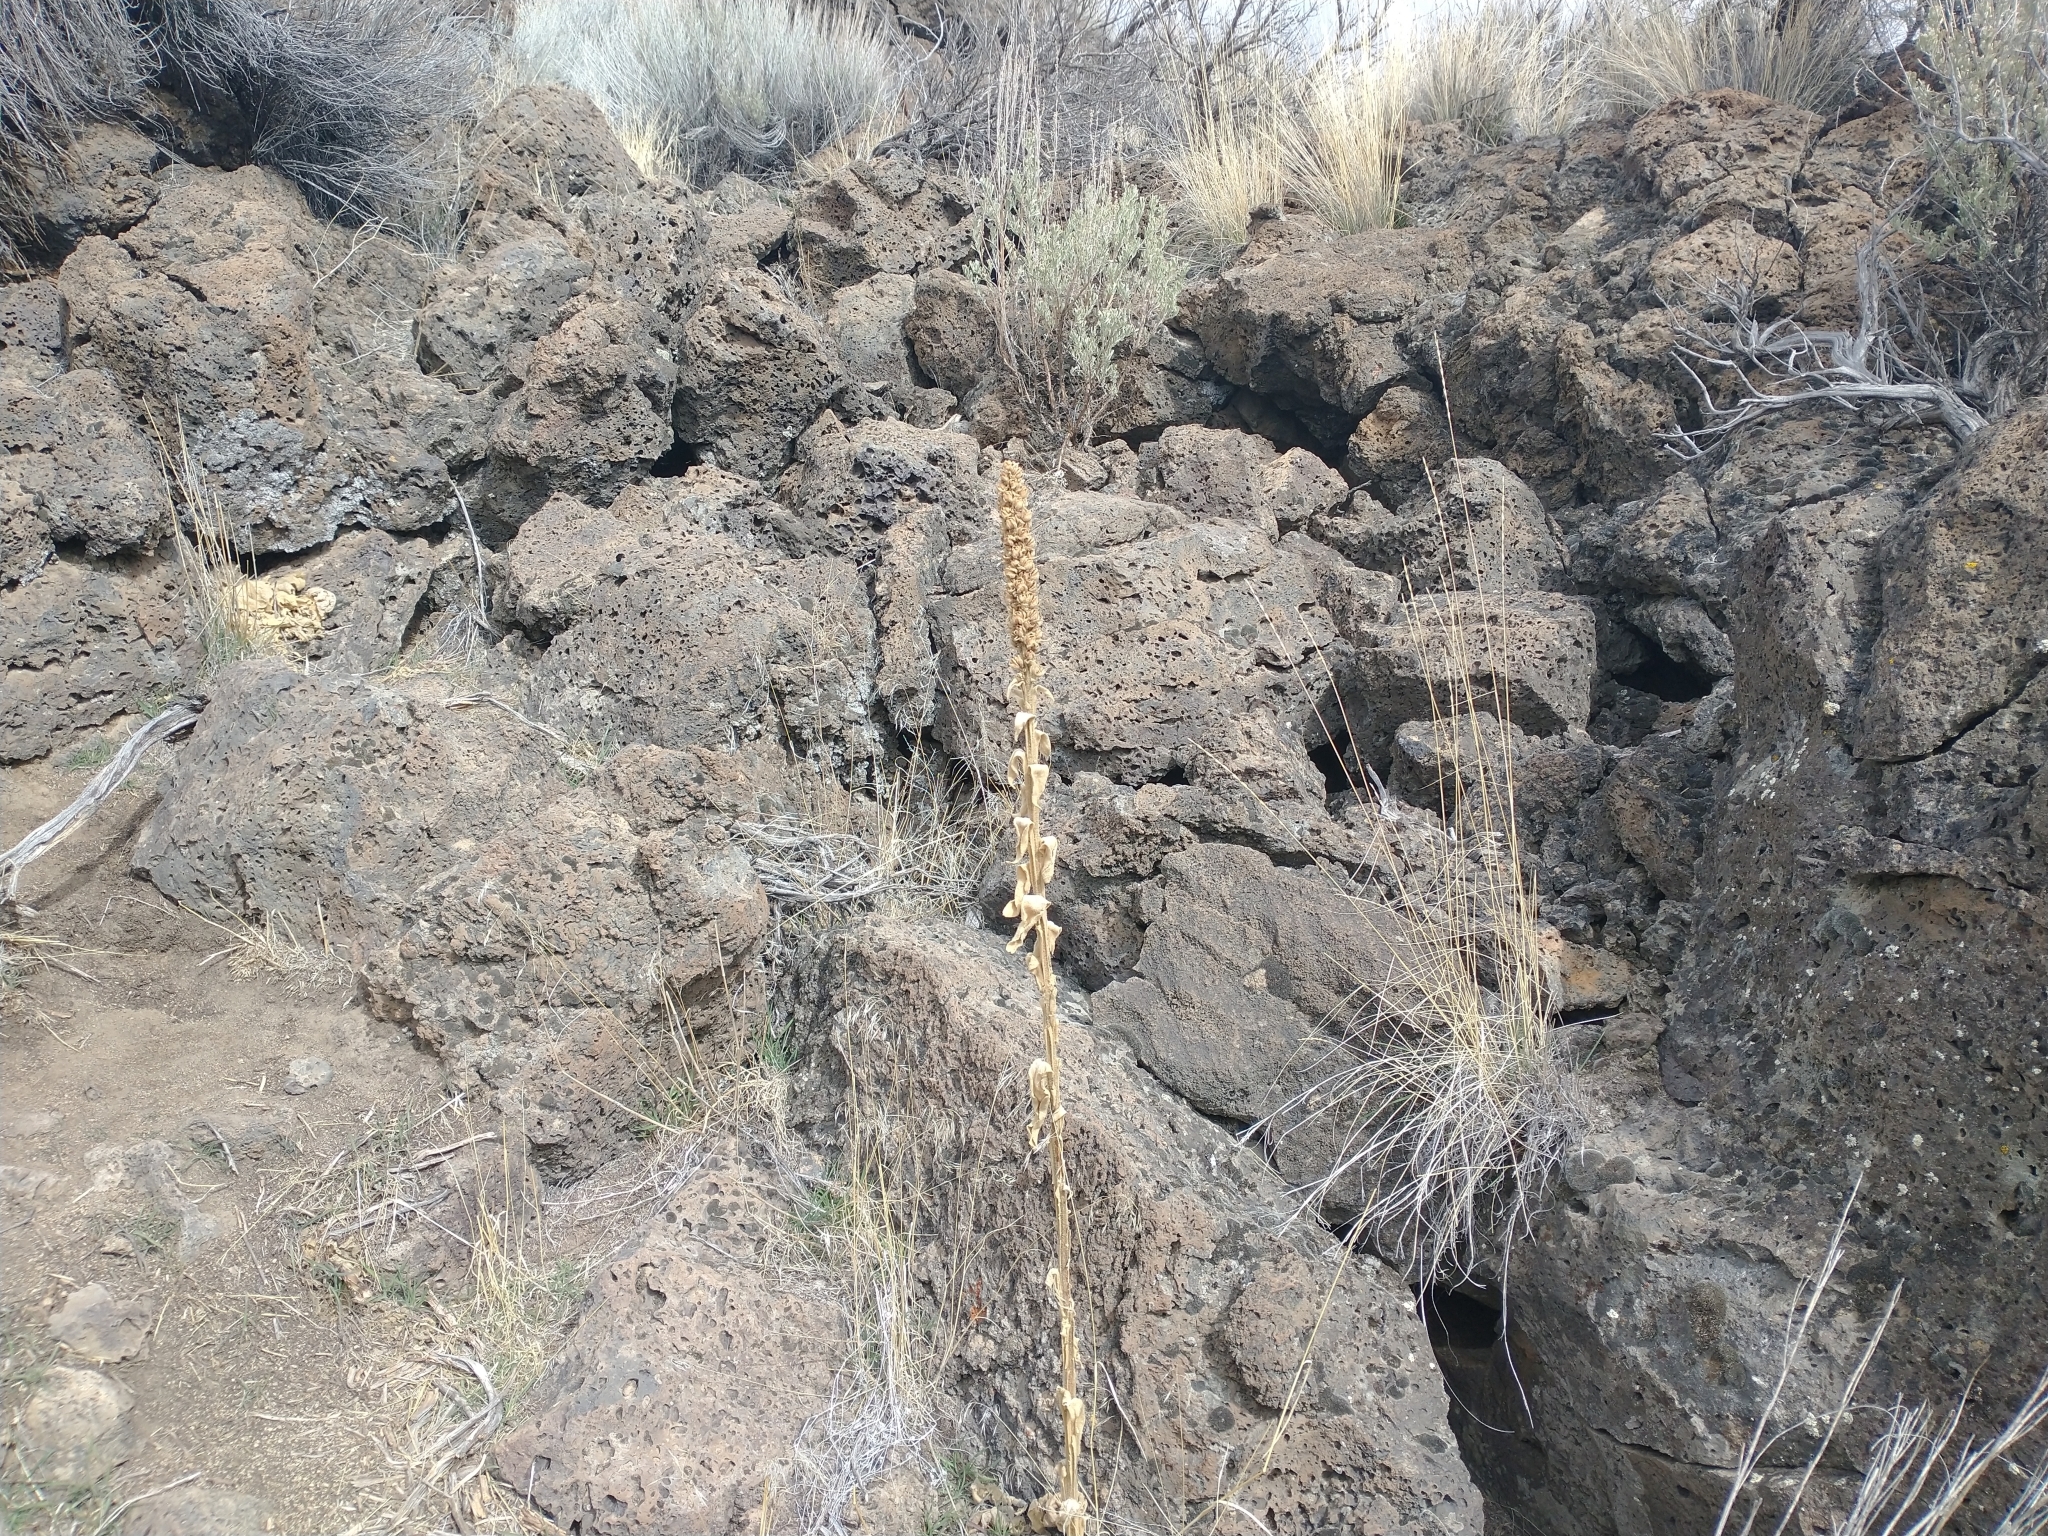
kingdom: Plantae
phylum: Tracheophyta
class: Magnoliopsida
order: Lamiales
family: Scrophulariaceae
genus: Verbascum
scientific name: Verbascum thapsus
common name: Common mullein
